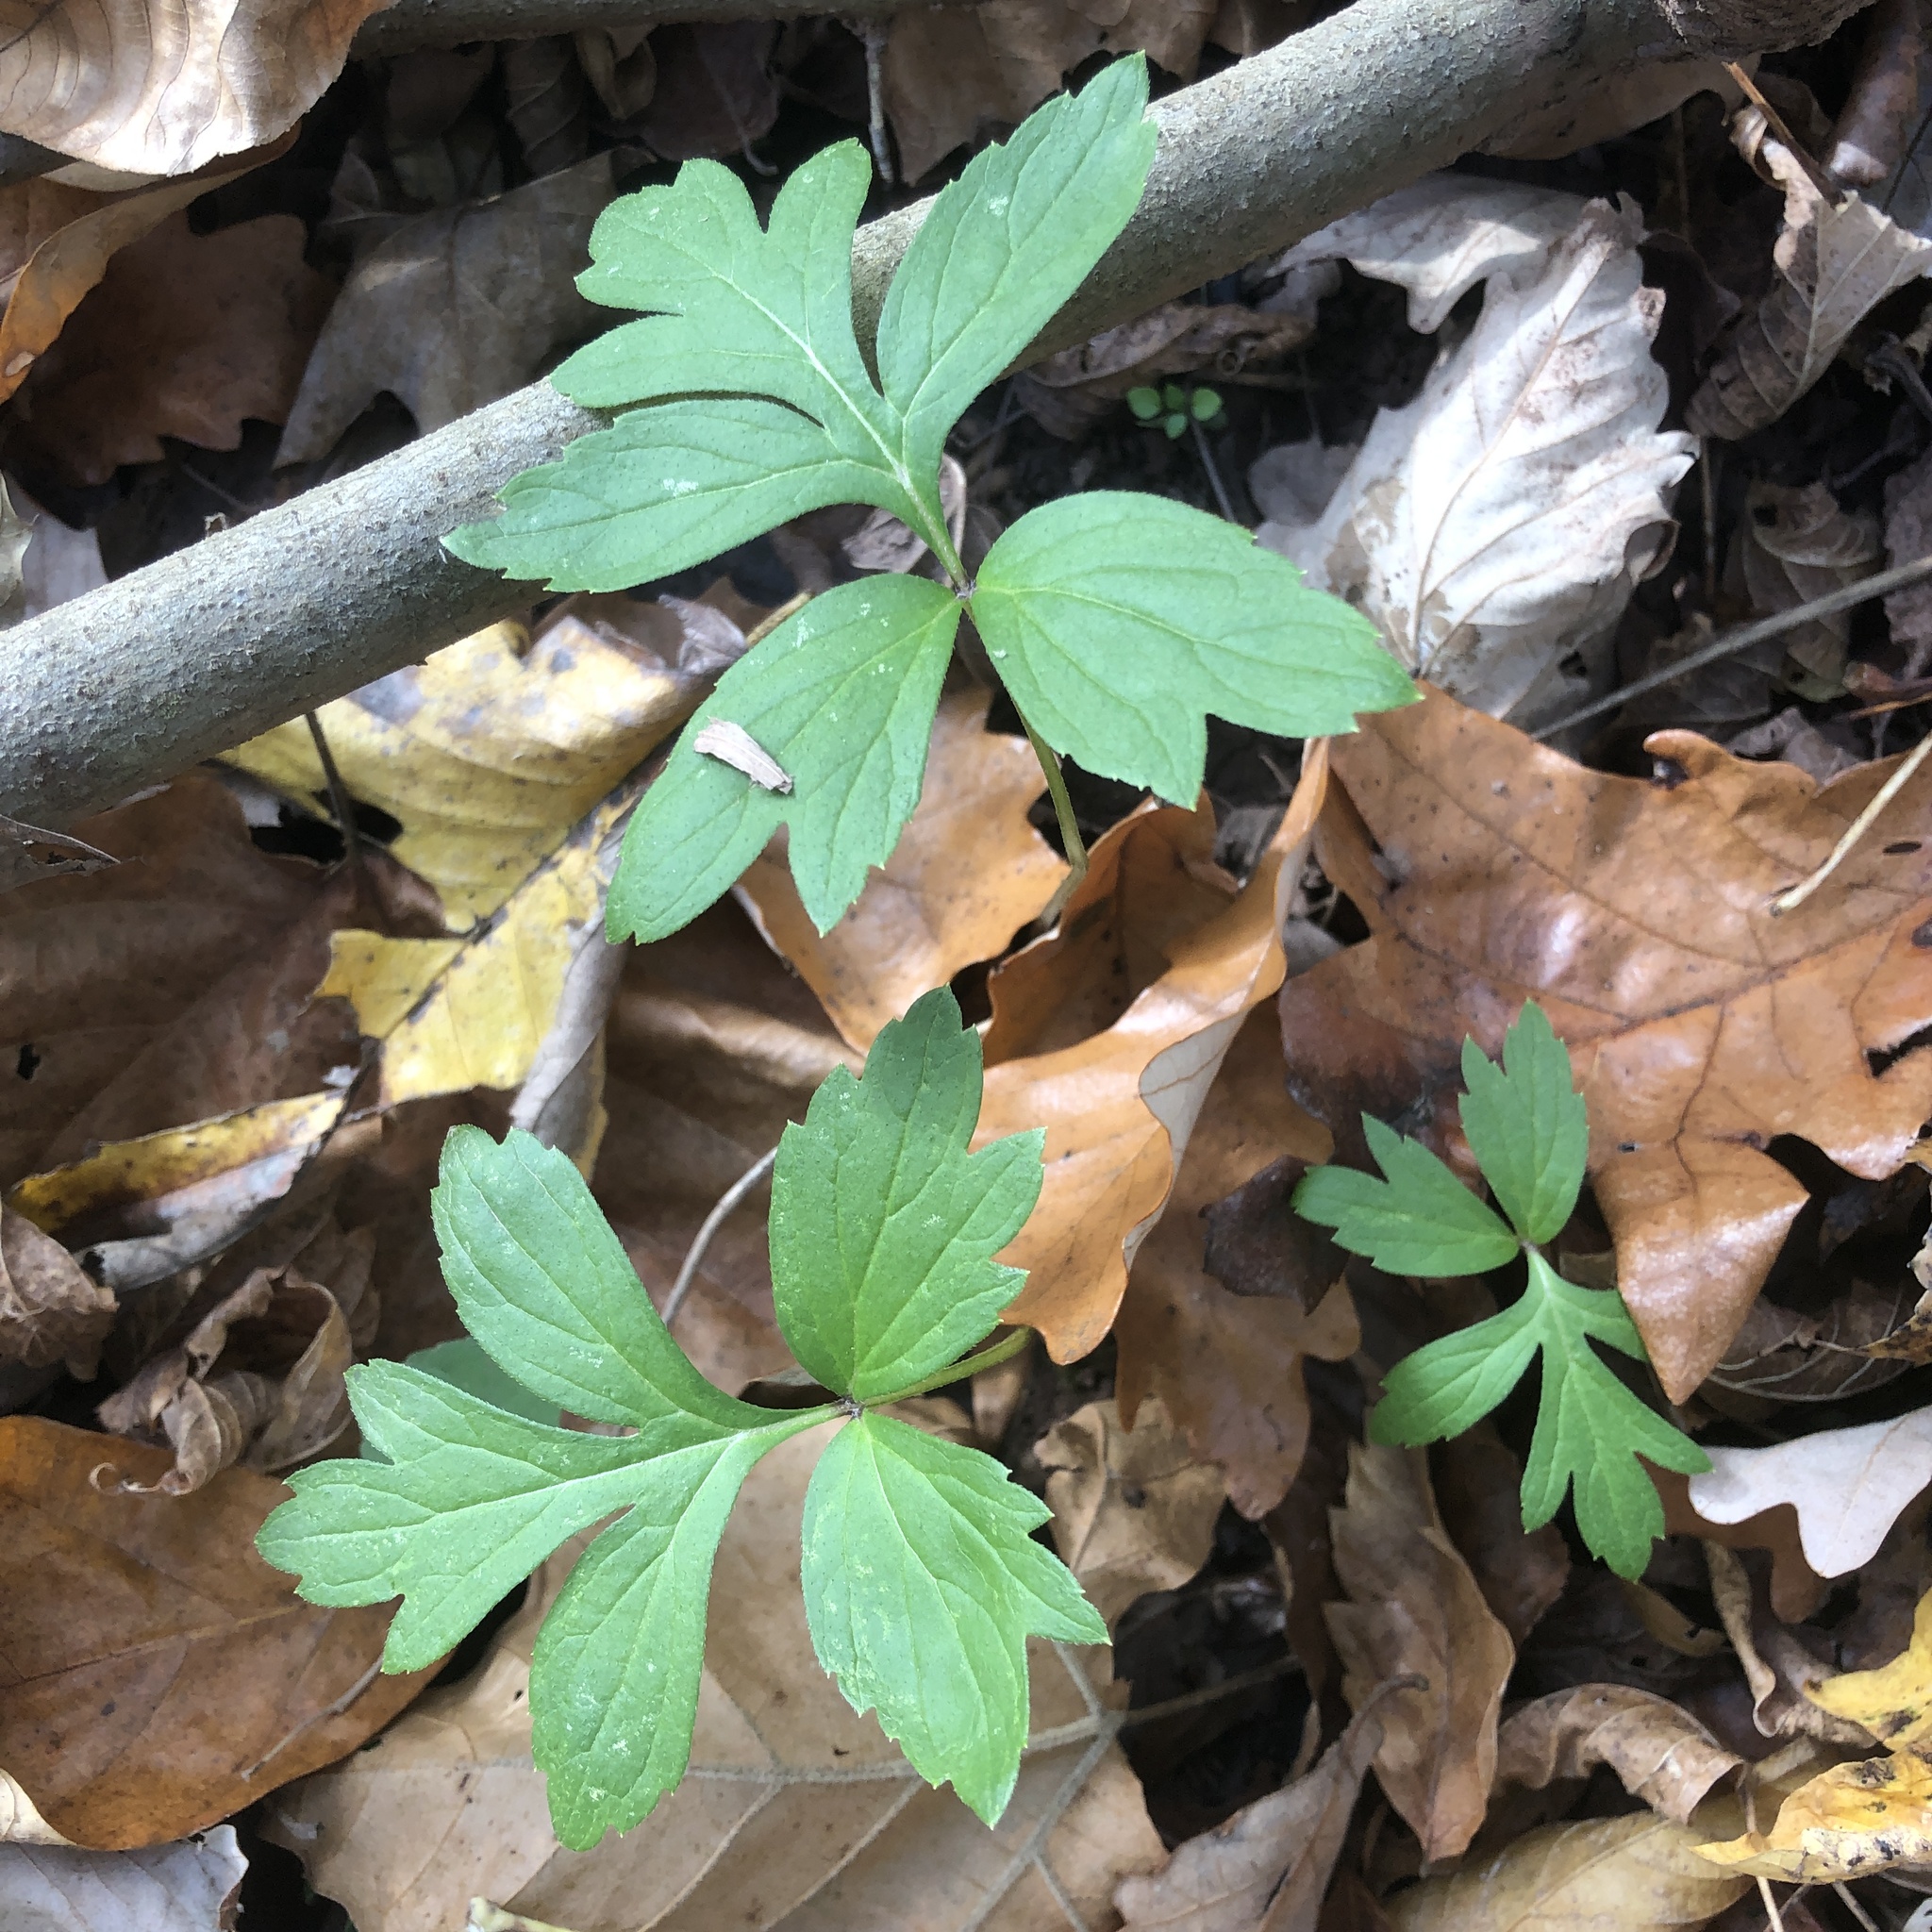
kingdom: Plantae
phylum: Tracheophyta
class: Magnoliopsida
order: Boraginales
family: Hydrophyllaceae
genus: Hydrophyllum
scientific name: Hydrophyllum virginianum
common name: Virginia waterleaf
